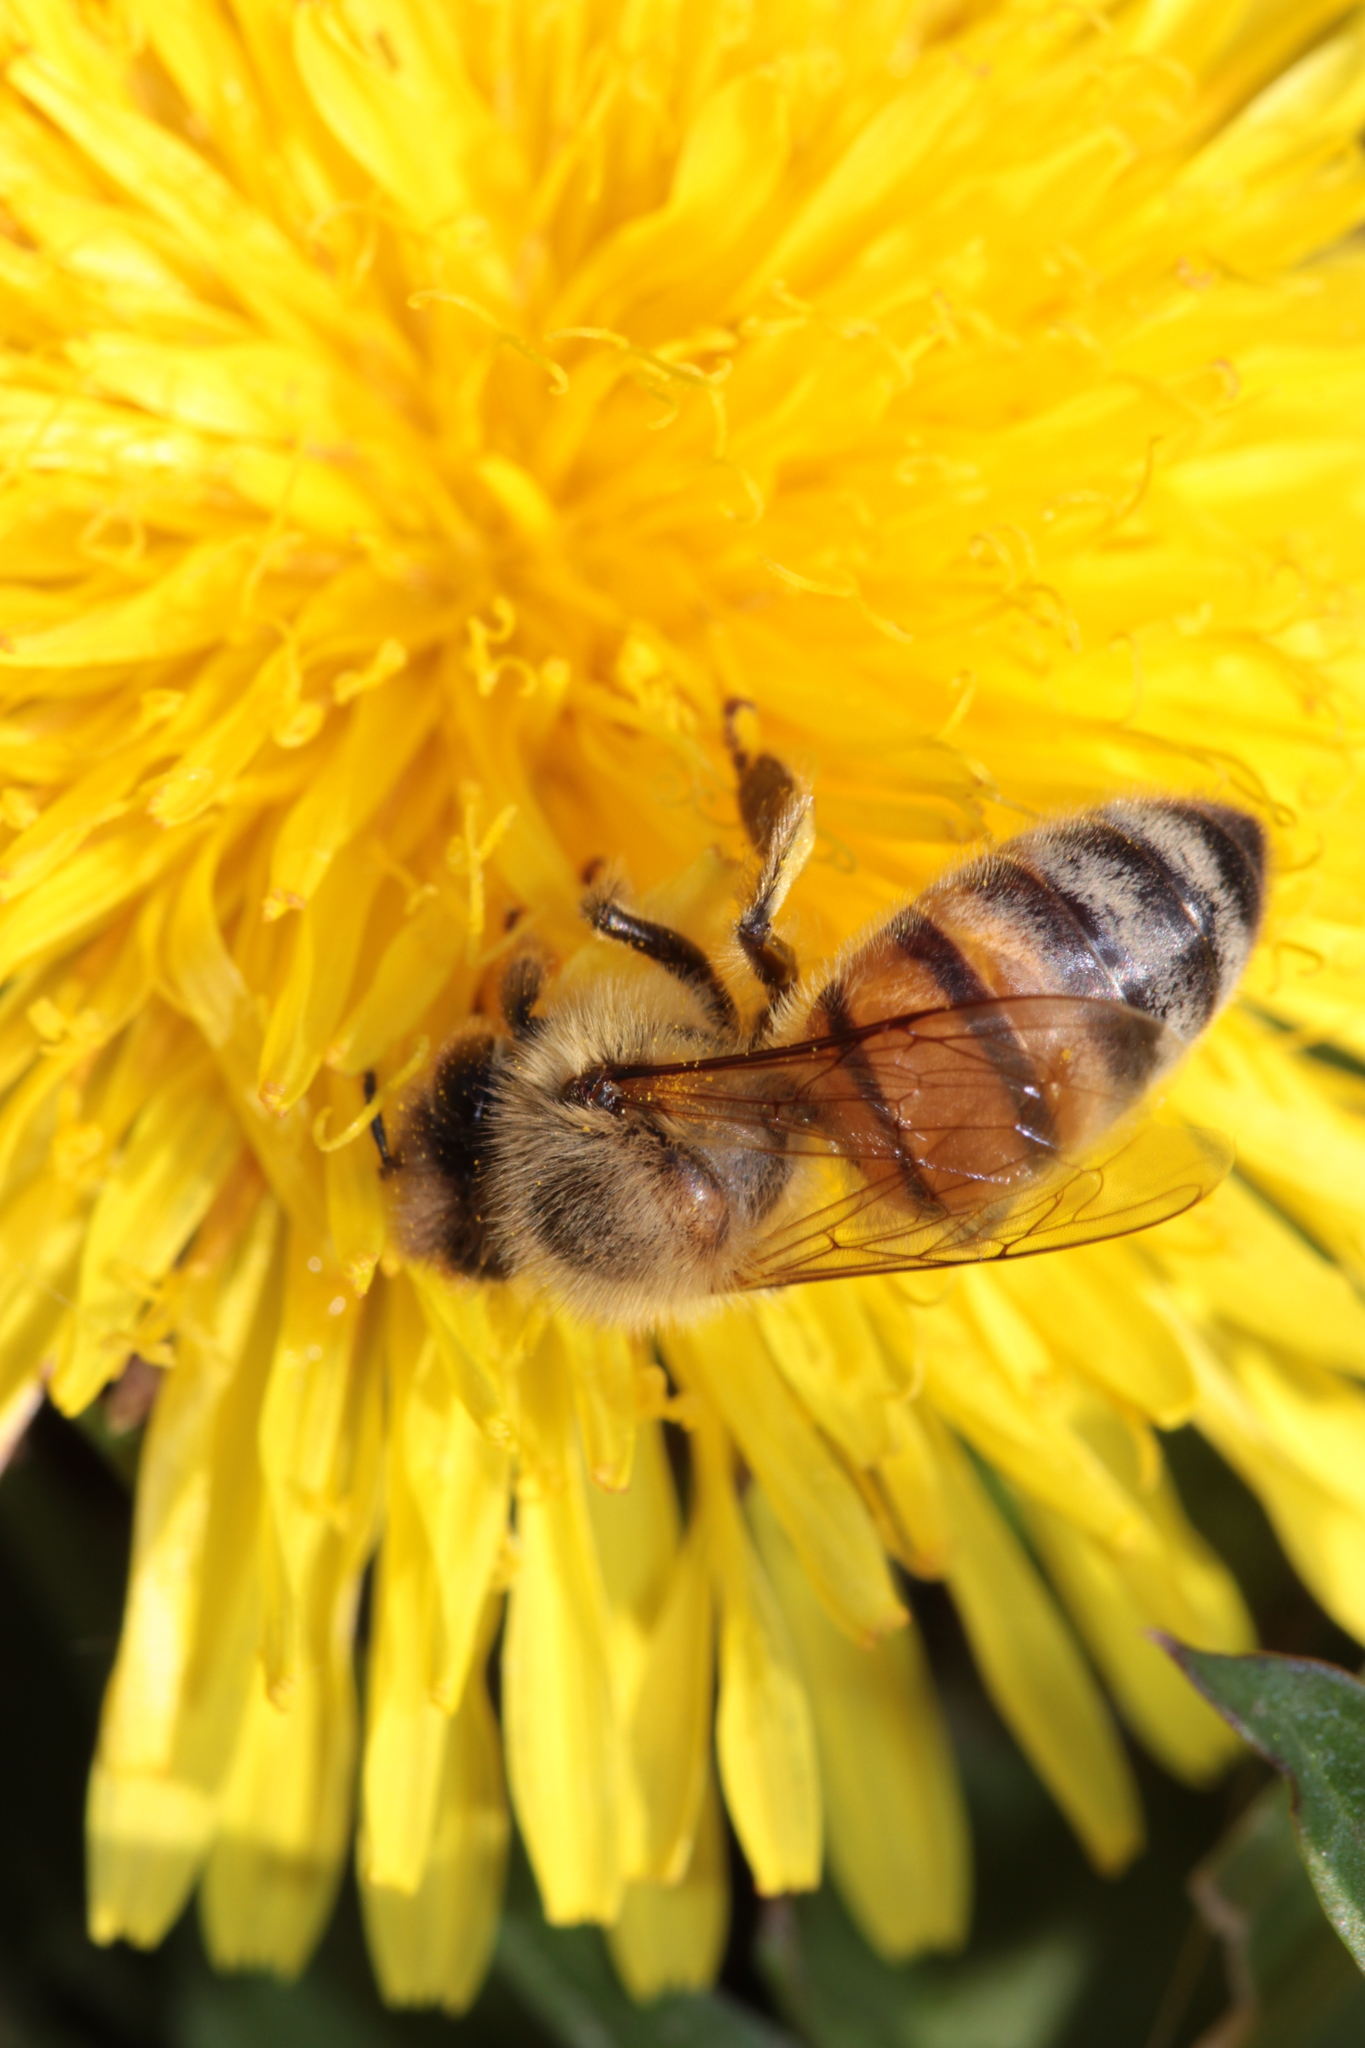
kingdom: Animalia
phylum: Arthropoda
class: Insecta
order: Hymenoptera
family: Apidae
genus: Apis
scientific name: Apis mellifera
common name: Honey bee
